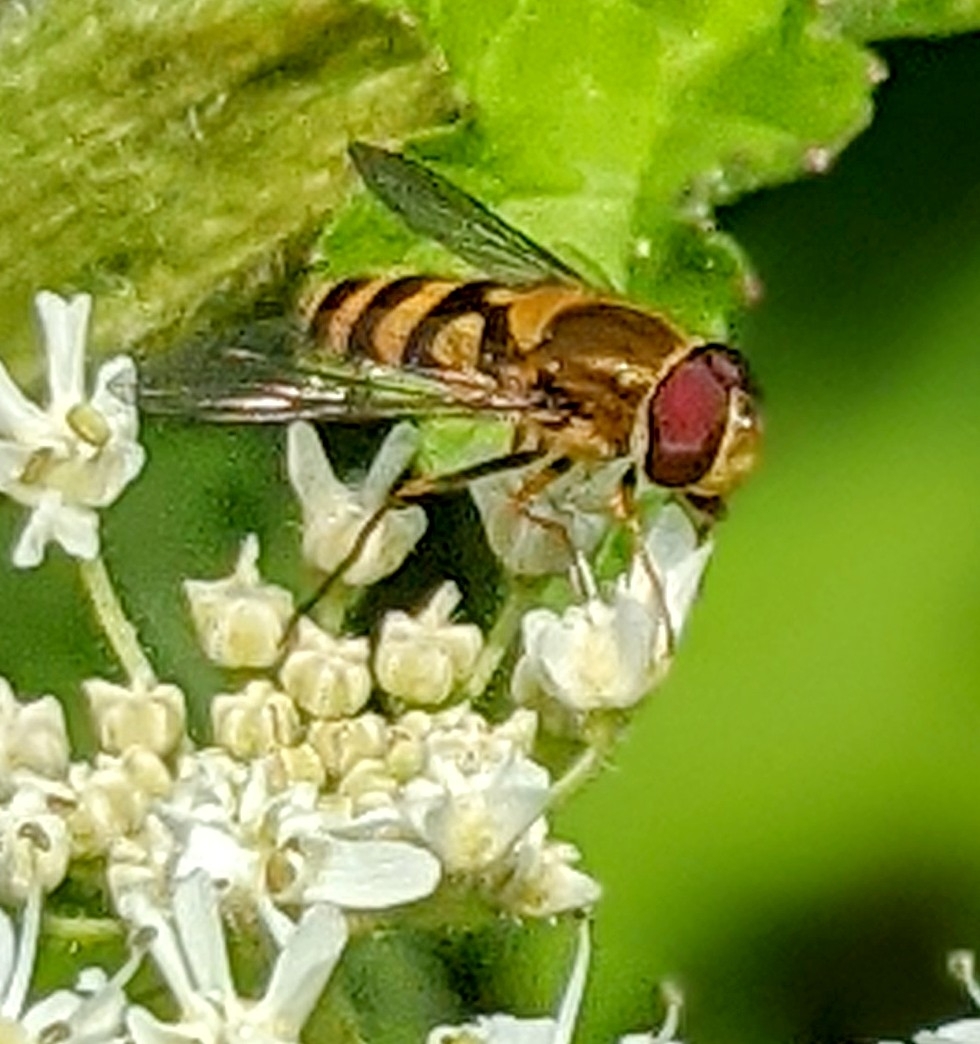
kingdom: Animalia
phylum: Arthropoda
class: Insecta
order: Diptera
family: Syrphidae
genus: Syrphus
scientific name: Syrphus
